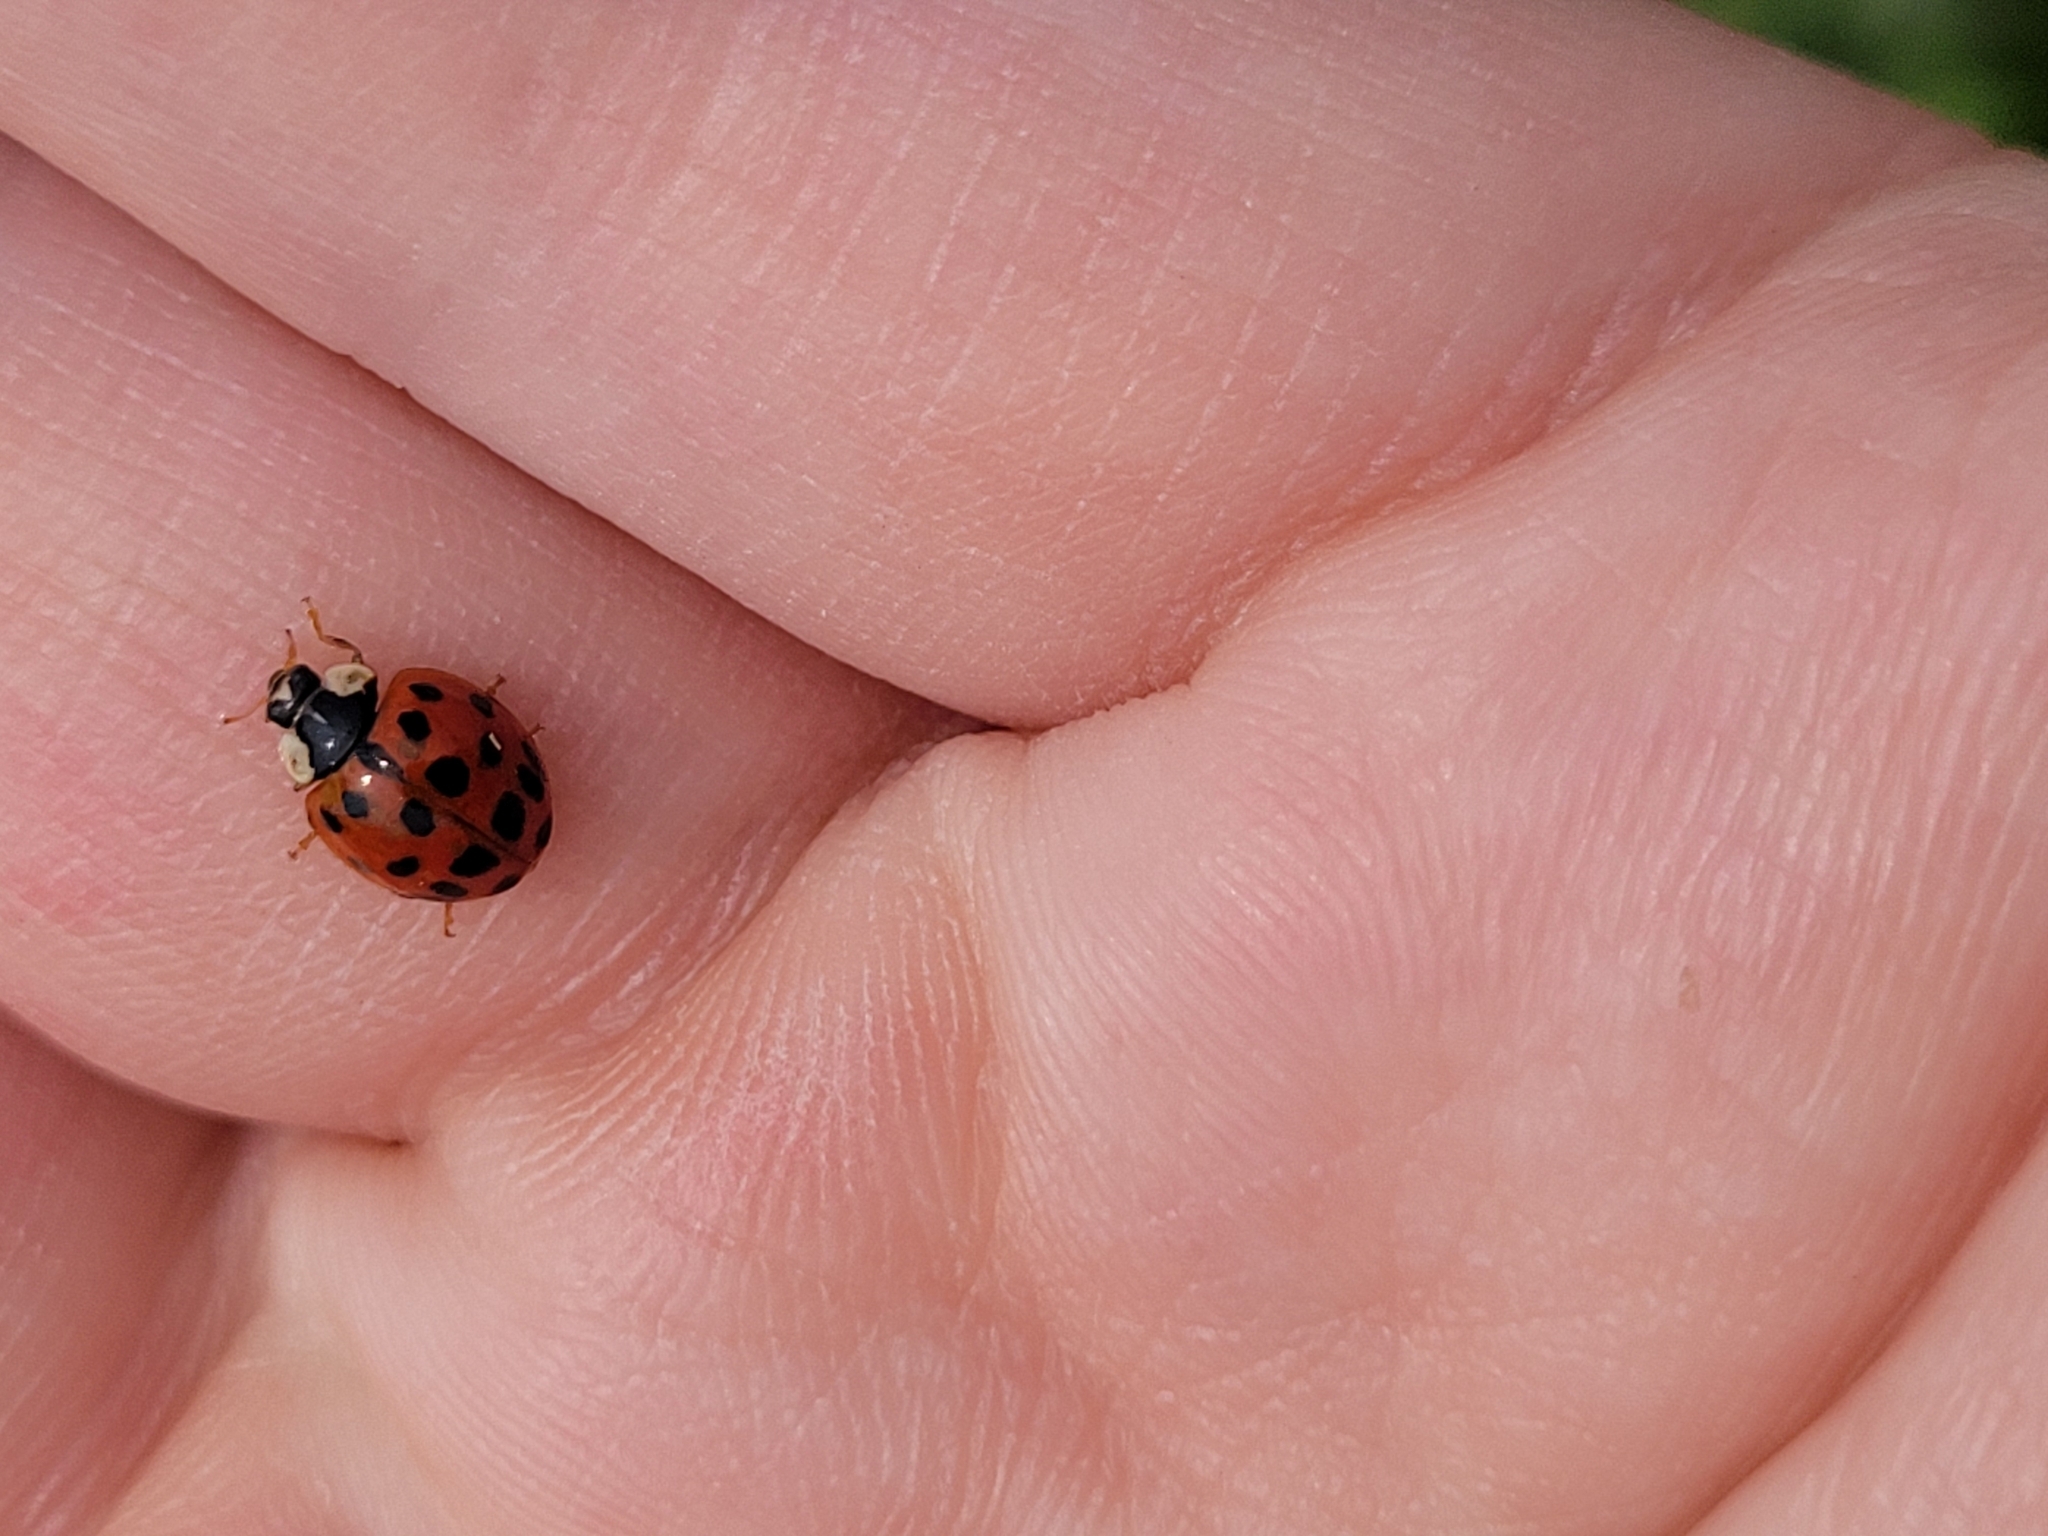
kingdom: Animalia
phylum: Arthropoda
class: Insecta
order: Coleoptera
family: Coccinellidae
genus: Harmonia
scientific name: Harmonia axyridis
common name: Harlequin ladybird
